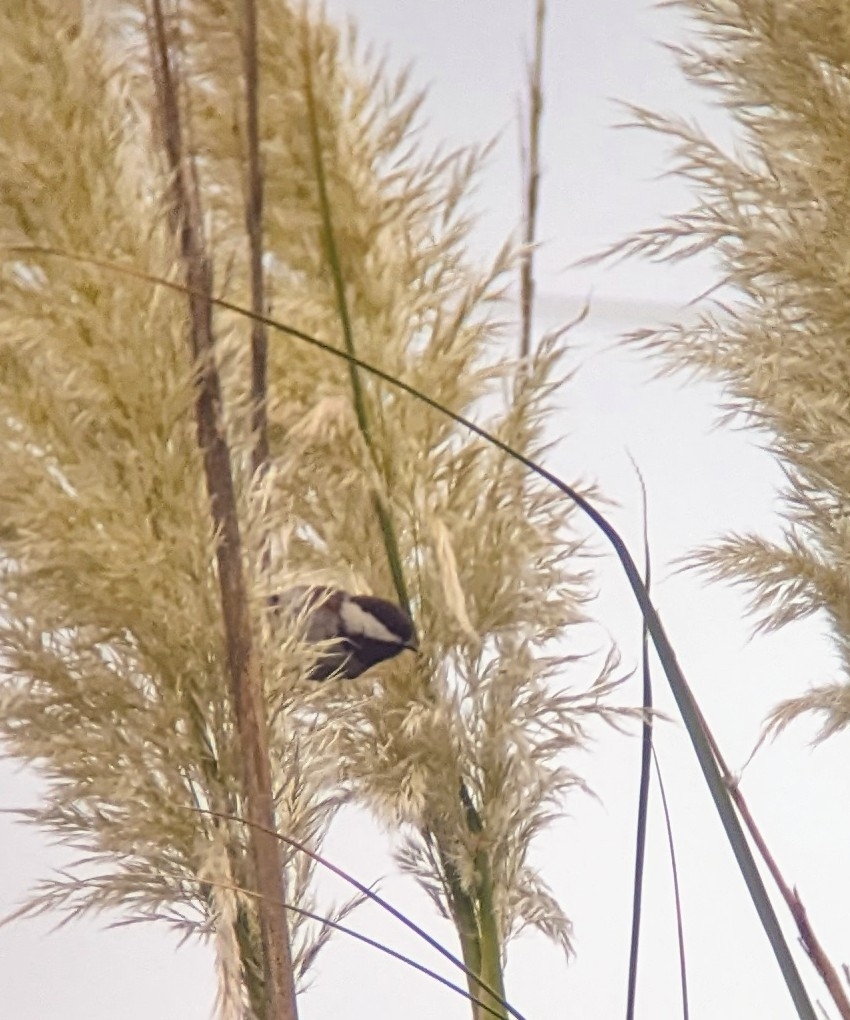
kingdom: Animalia
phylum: Chordata
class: Aves
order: Passeriformes
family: Paridae
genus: Poecile
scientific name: Poecile rufescens
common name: Chestnut-backed chickadee
